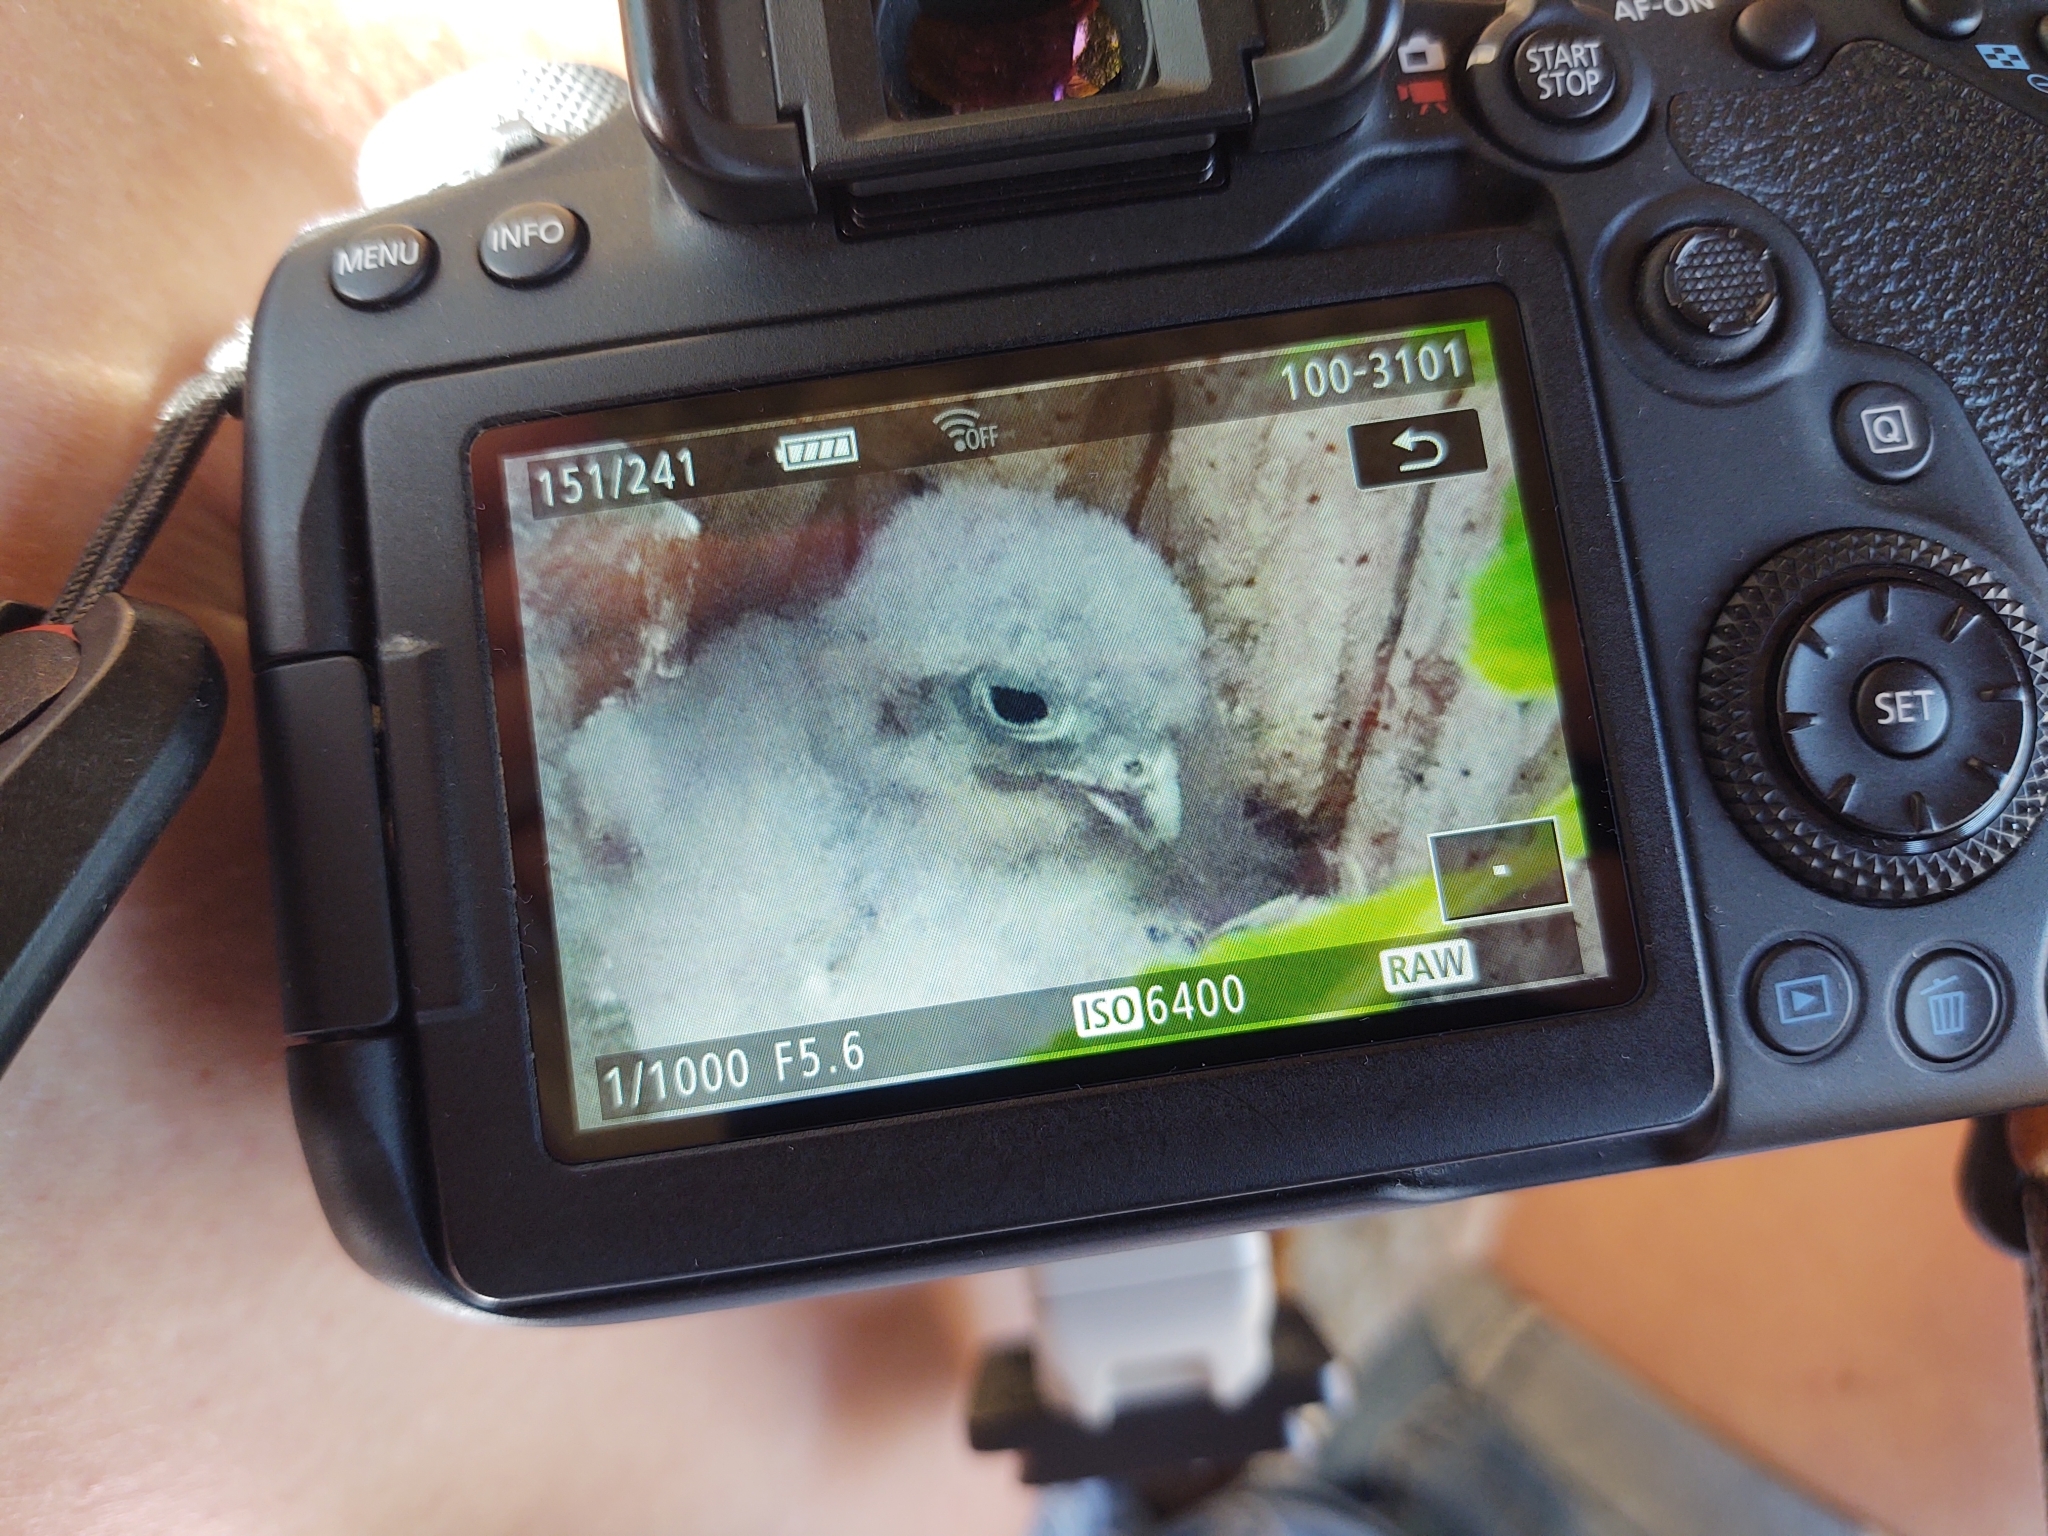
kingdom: Animalia
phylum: Chordata
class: Aves
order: Falconiformes
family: Falconidae
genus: Falco
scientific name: Falco tinnunculus
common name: Common kestrel
